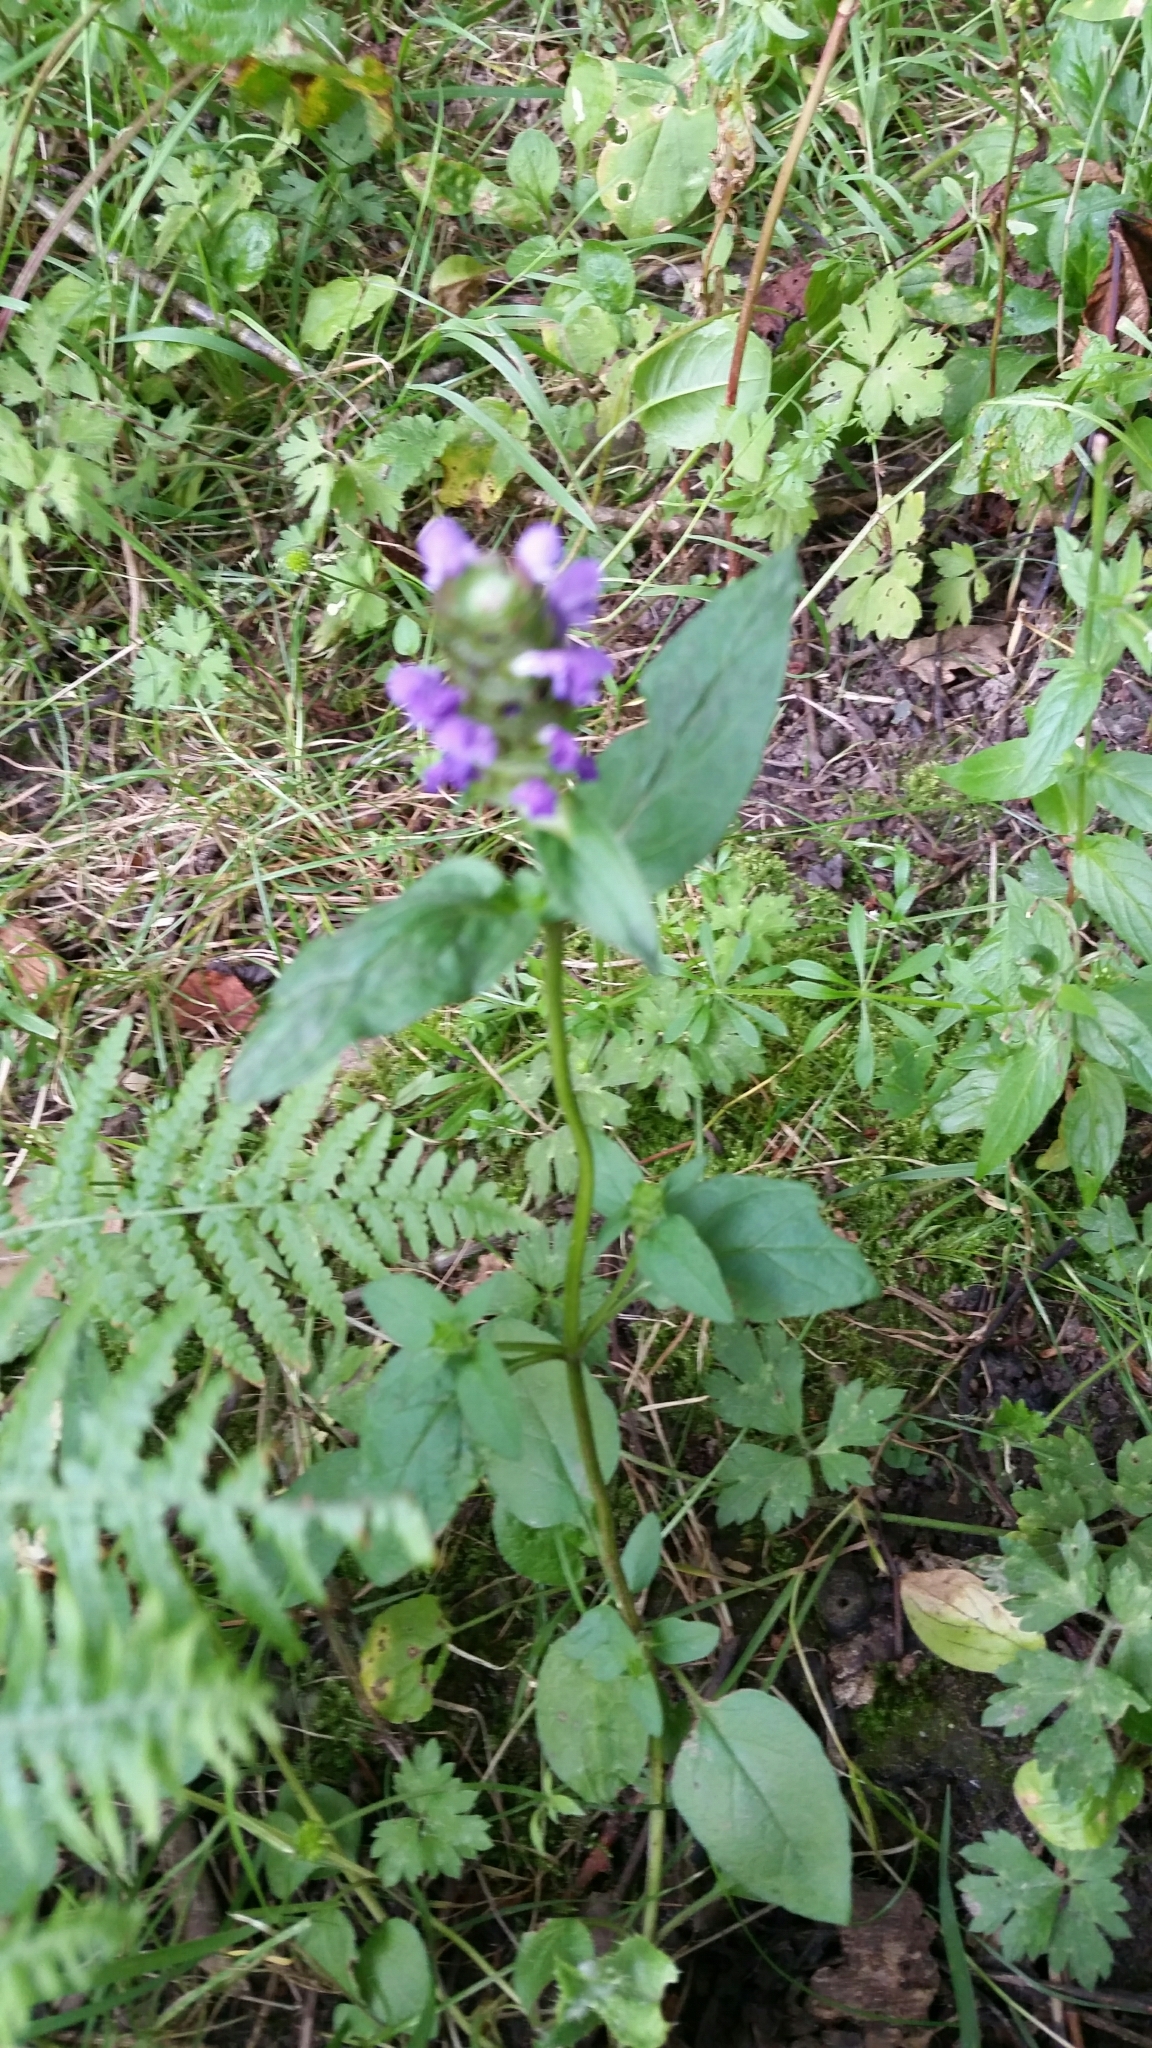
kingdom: Plantae
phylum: Tracheophyta
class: Magnoliopsida
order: Lamiales
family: Lamiaceae
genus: Prunella
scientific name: Prunella vulgaris
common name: Heal-all
